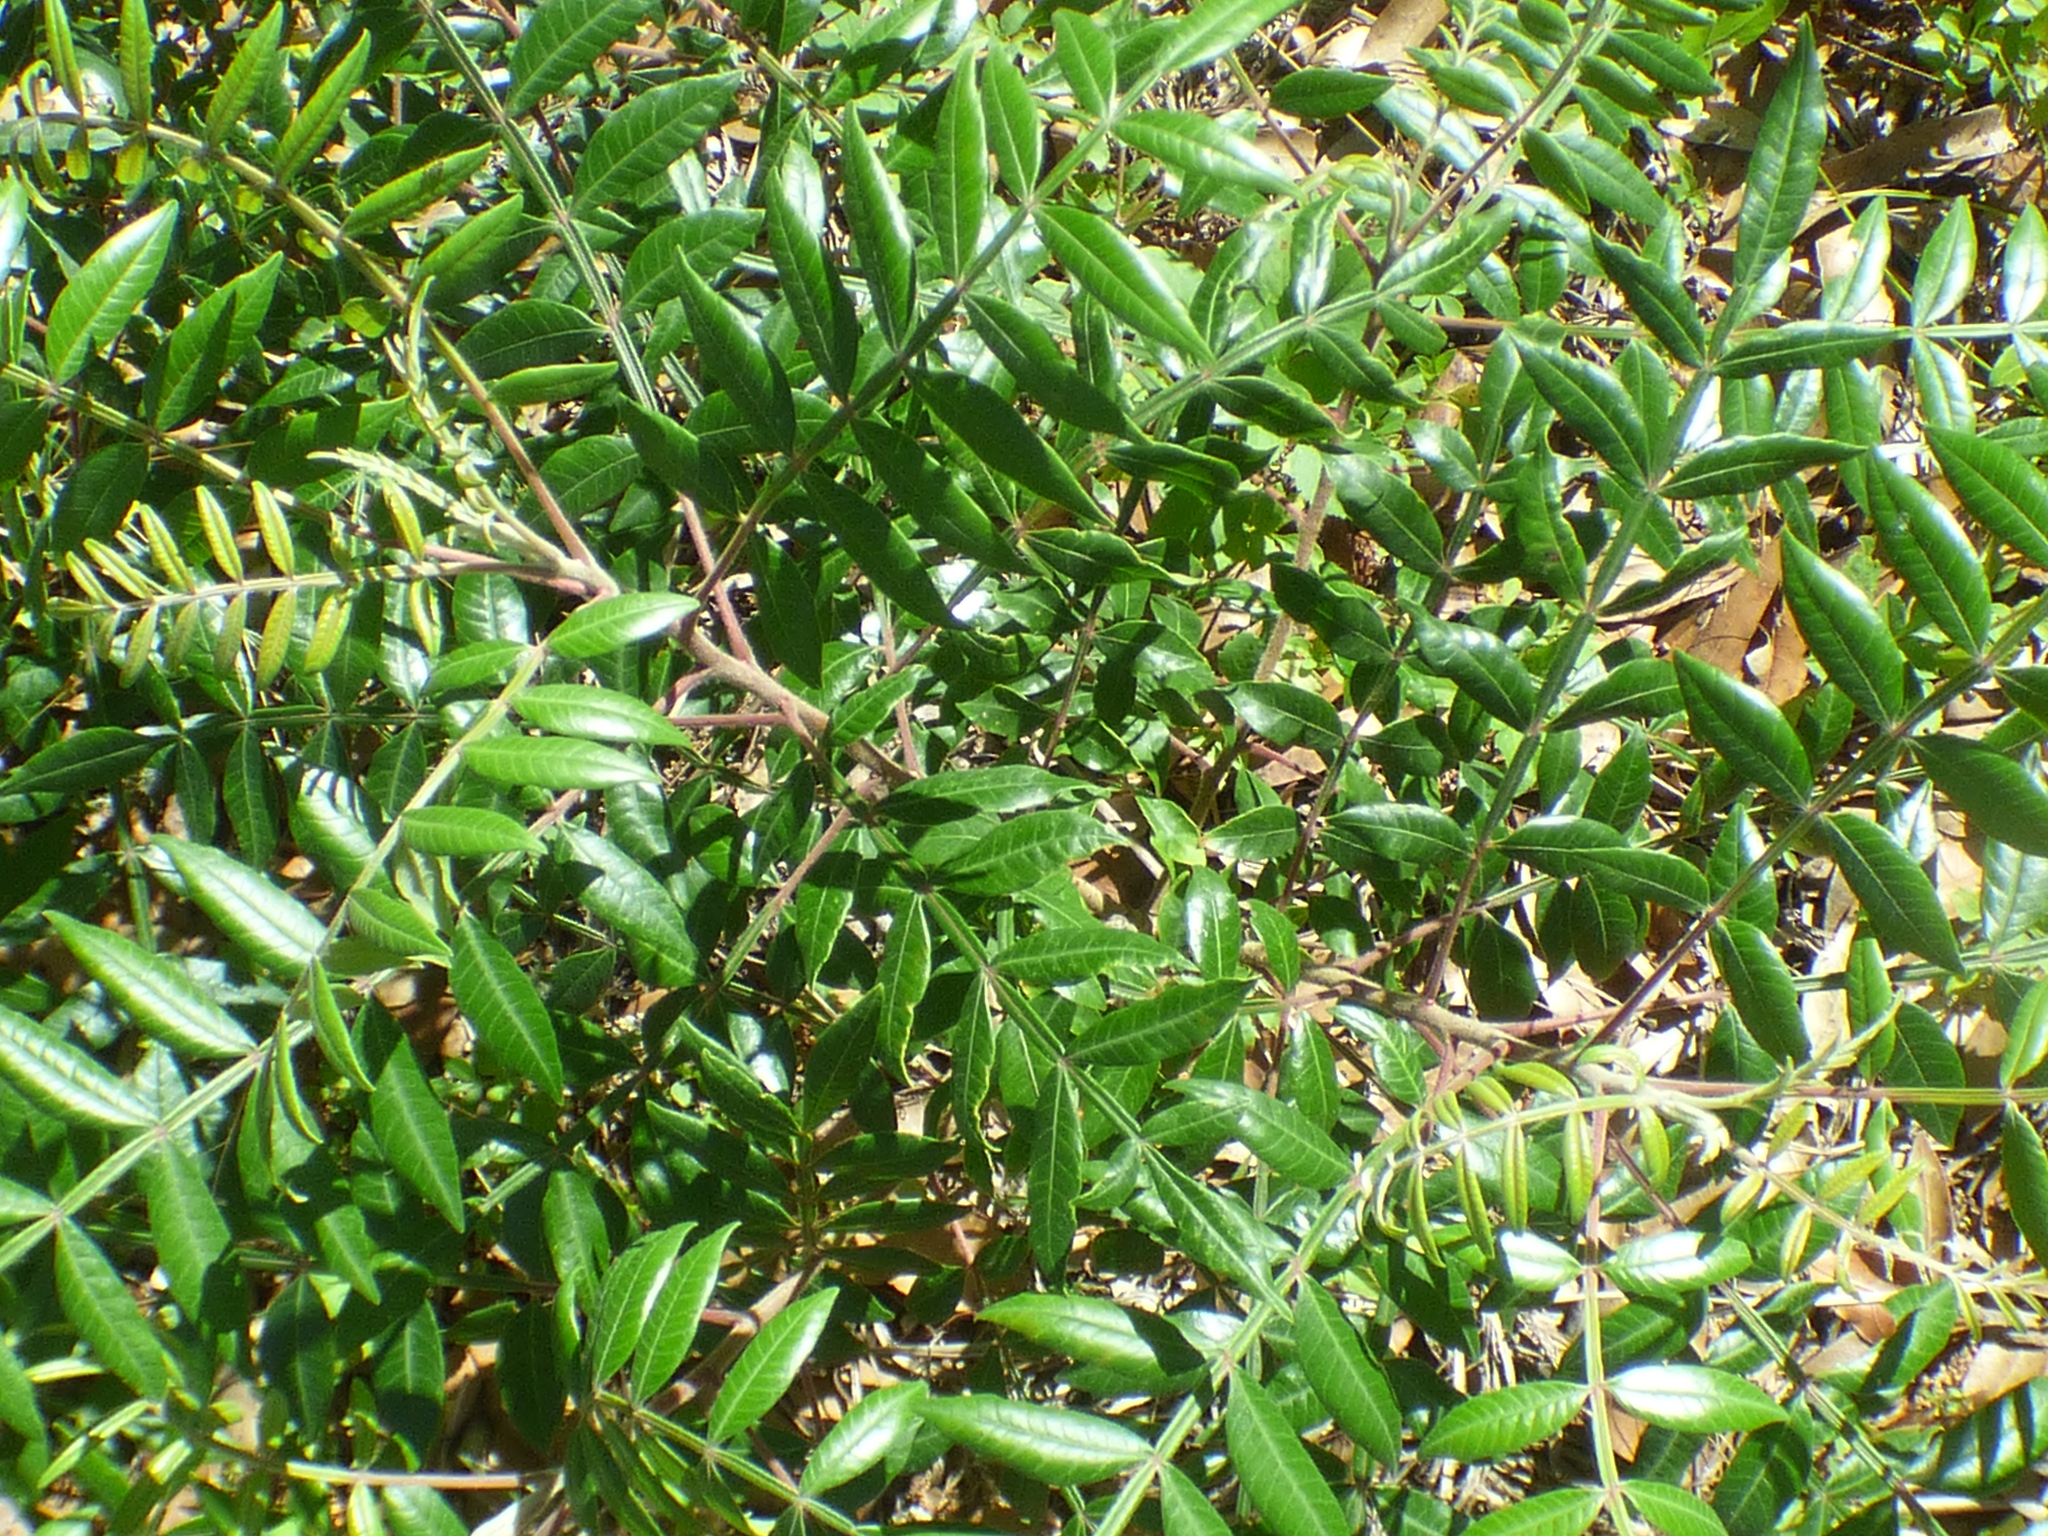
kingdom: Plantae
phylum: Tracheophyta
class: Magnoliopsida
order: Sapindales
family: Anacardiaceae
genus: Rhus
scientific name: Rhus copallina
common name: Shining sumac
